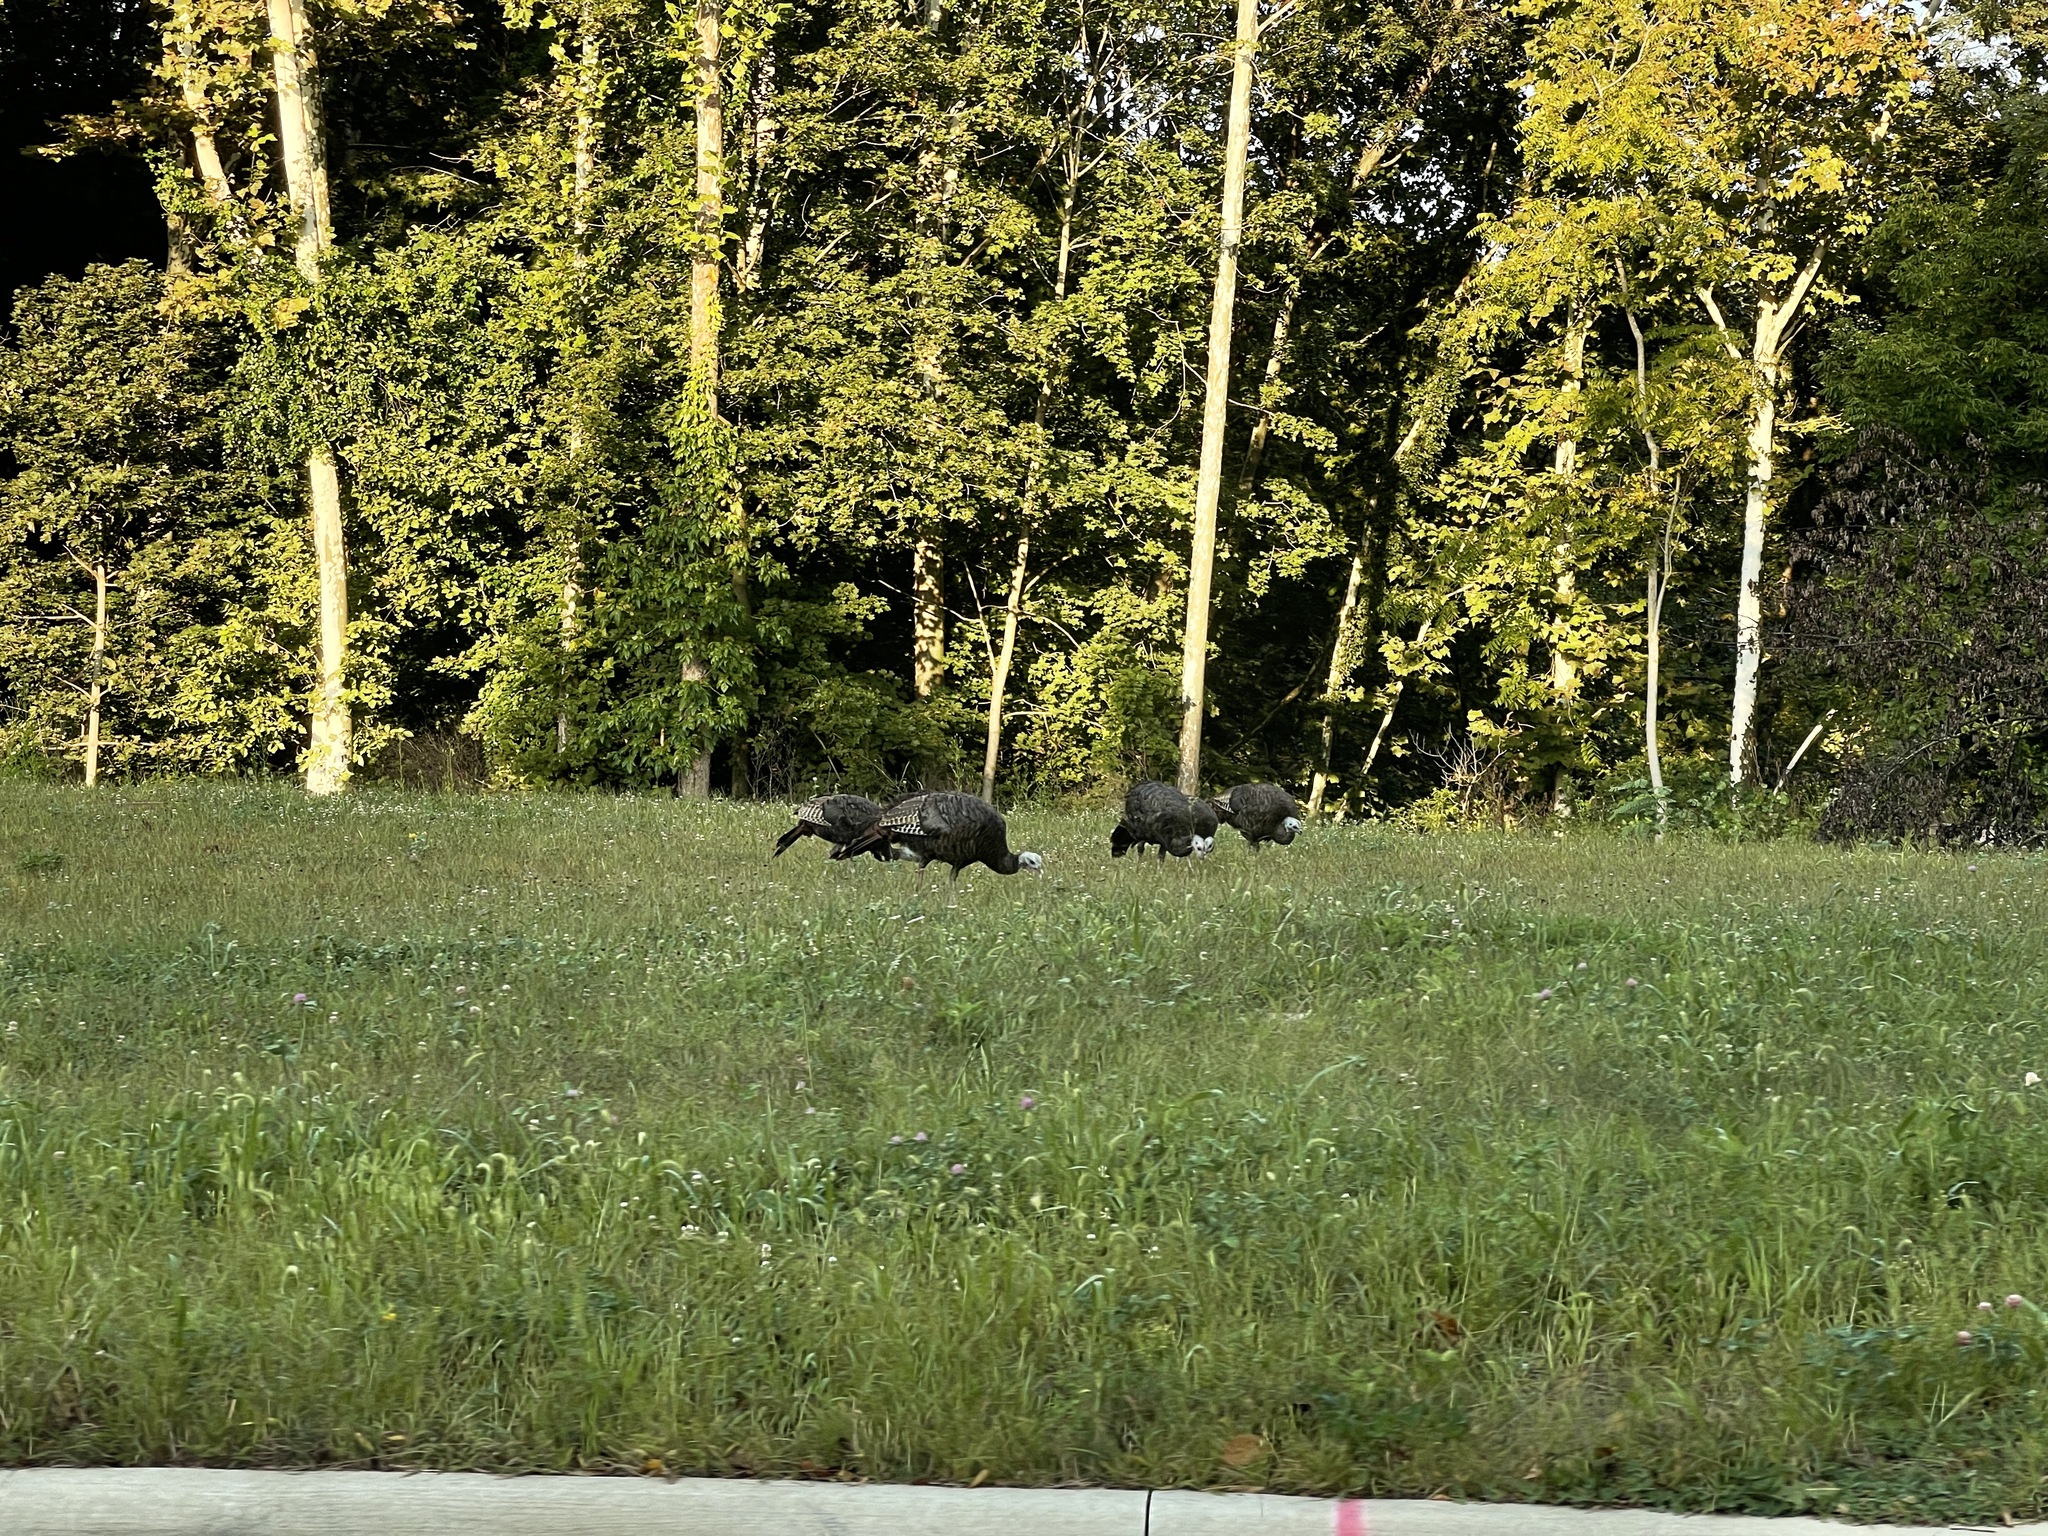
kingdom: Animalia
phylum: Chordata
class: Aves
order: Galliformes
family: Phasianidae
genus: Meleagris
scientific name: Meleagris gallopavo
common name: Wild turkey
